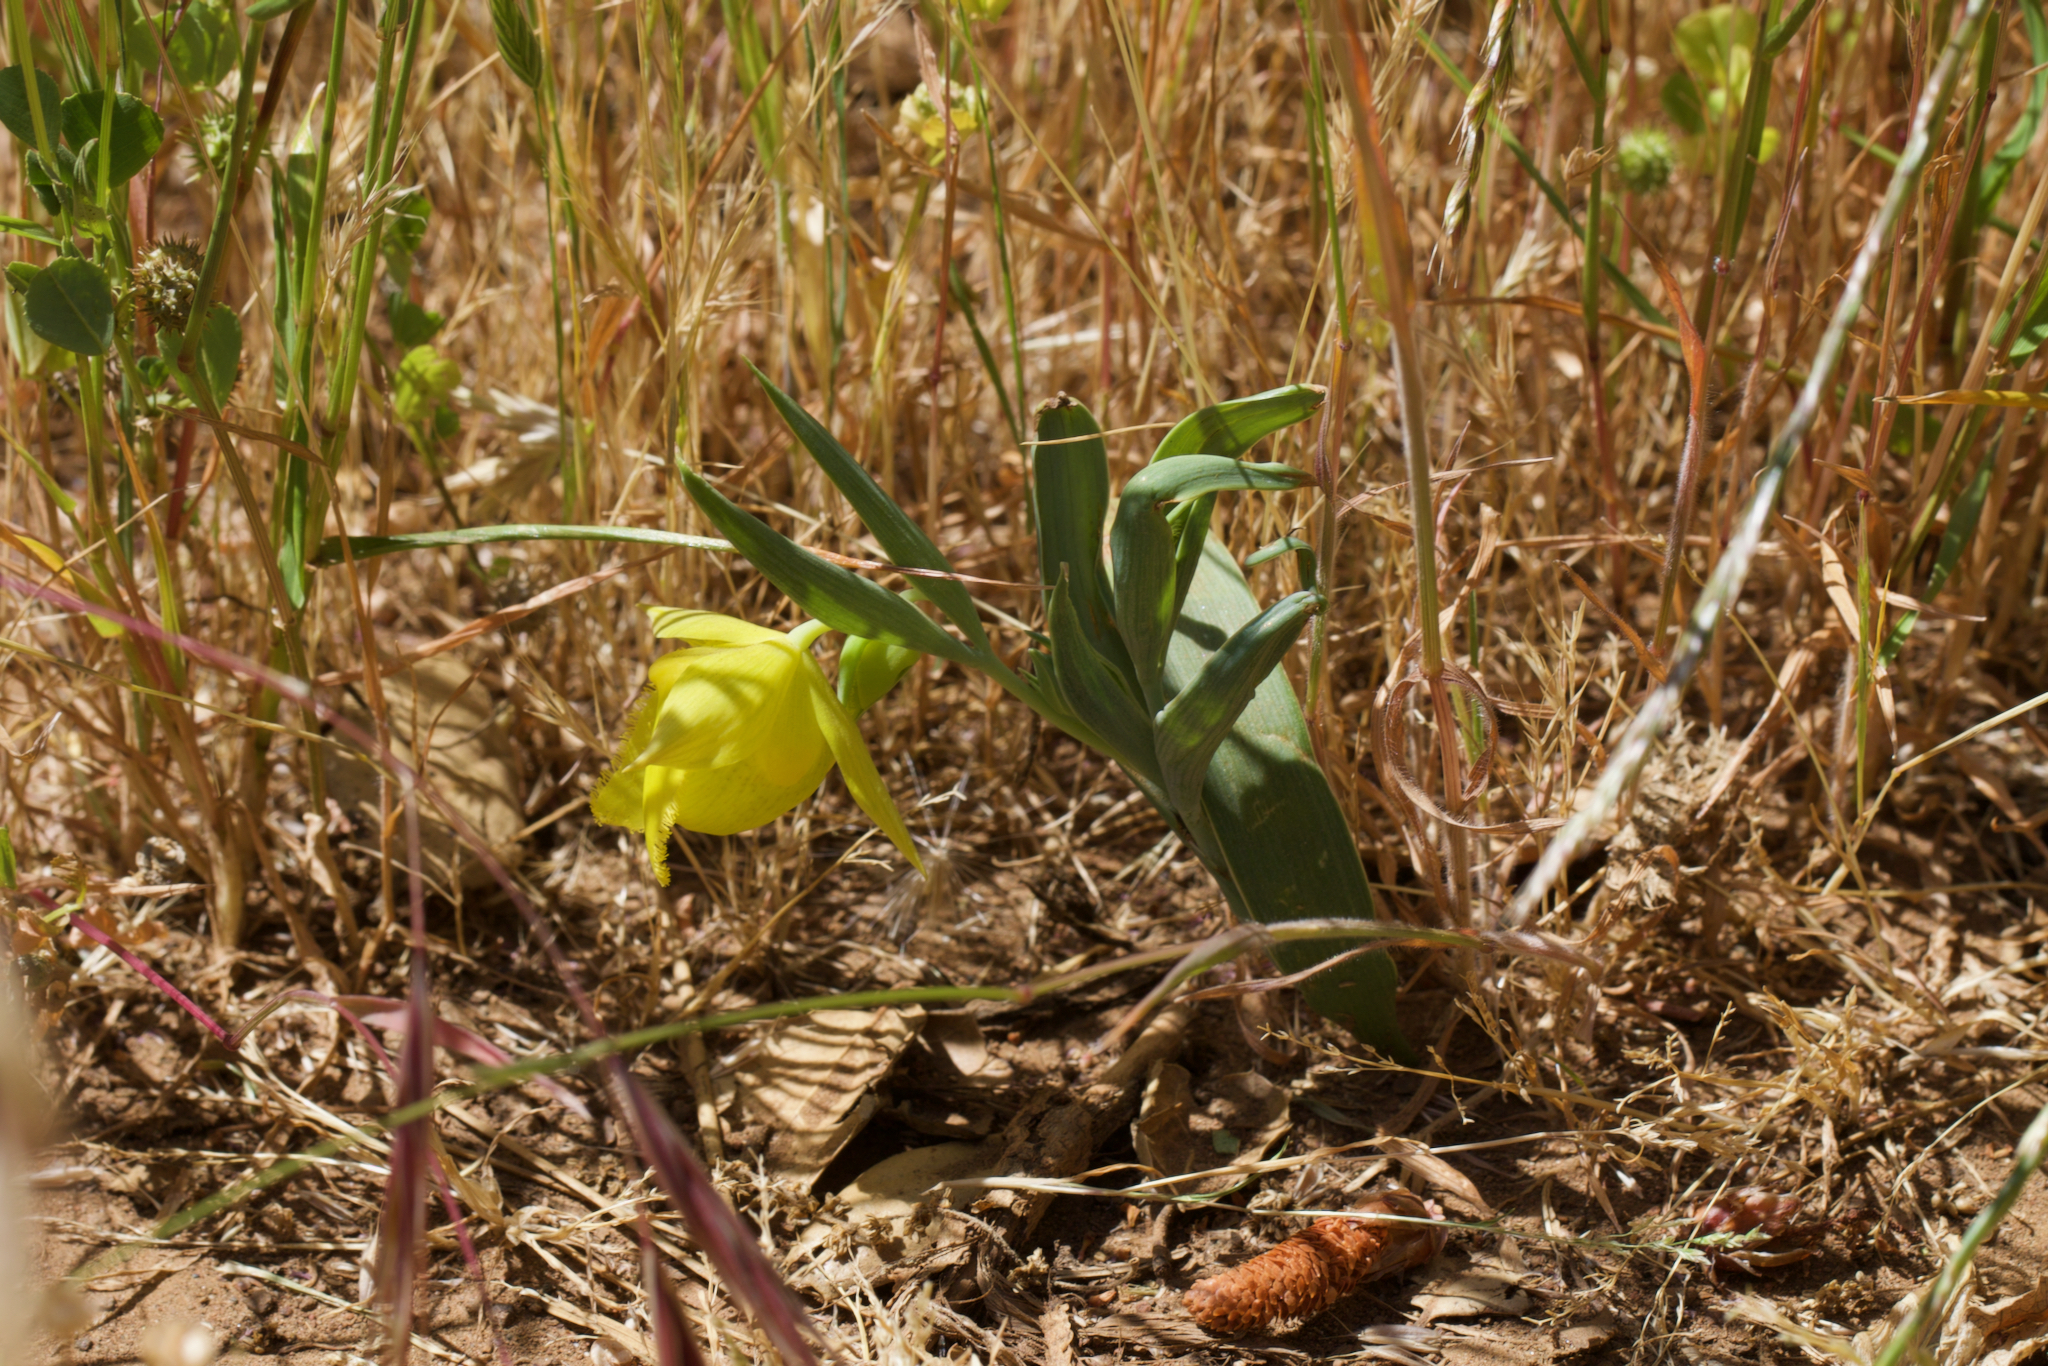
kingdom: Plantae
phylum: Tracheophyta
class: Liliopsida
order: Liliales
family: Liliaceae
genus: Calochortus
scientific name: Calochortus pulchellus
